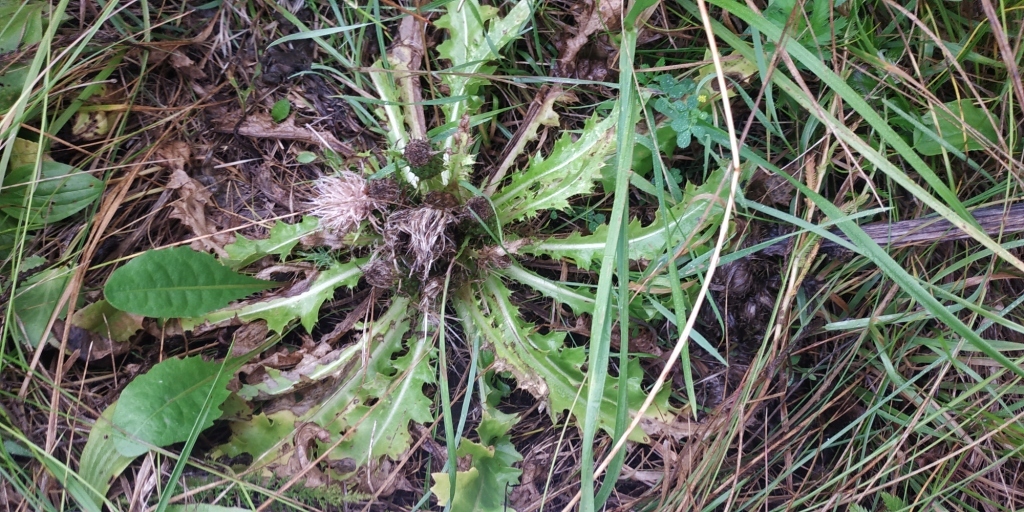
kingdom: Plantae
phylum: Tracheophyta
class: Magnoliopsida
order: Asterales
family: Asteraceae
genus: Cirsium
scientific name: Cirsium esculentum
